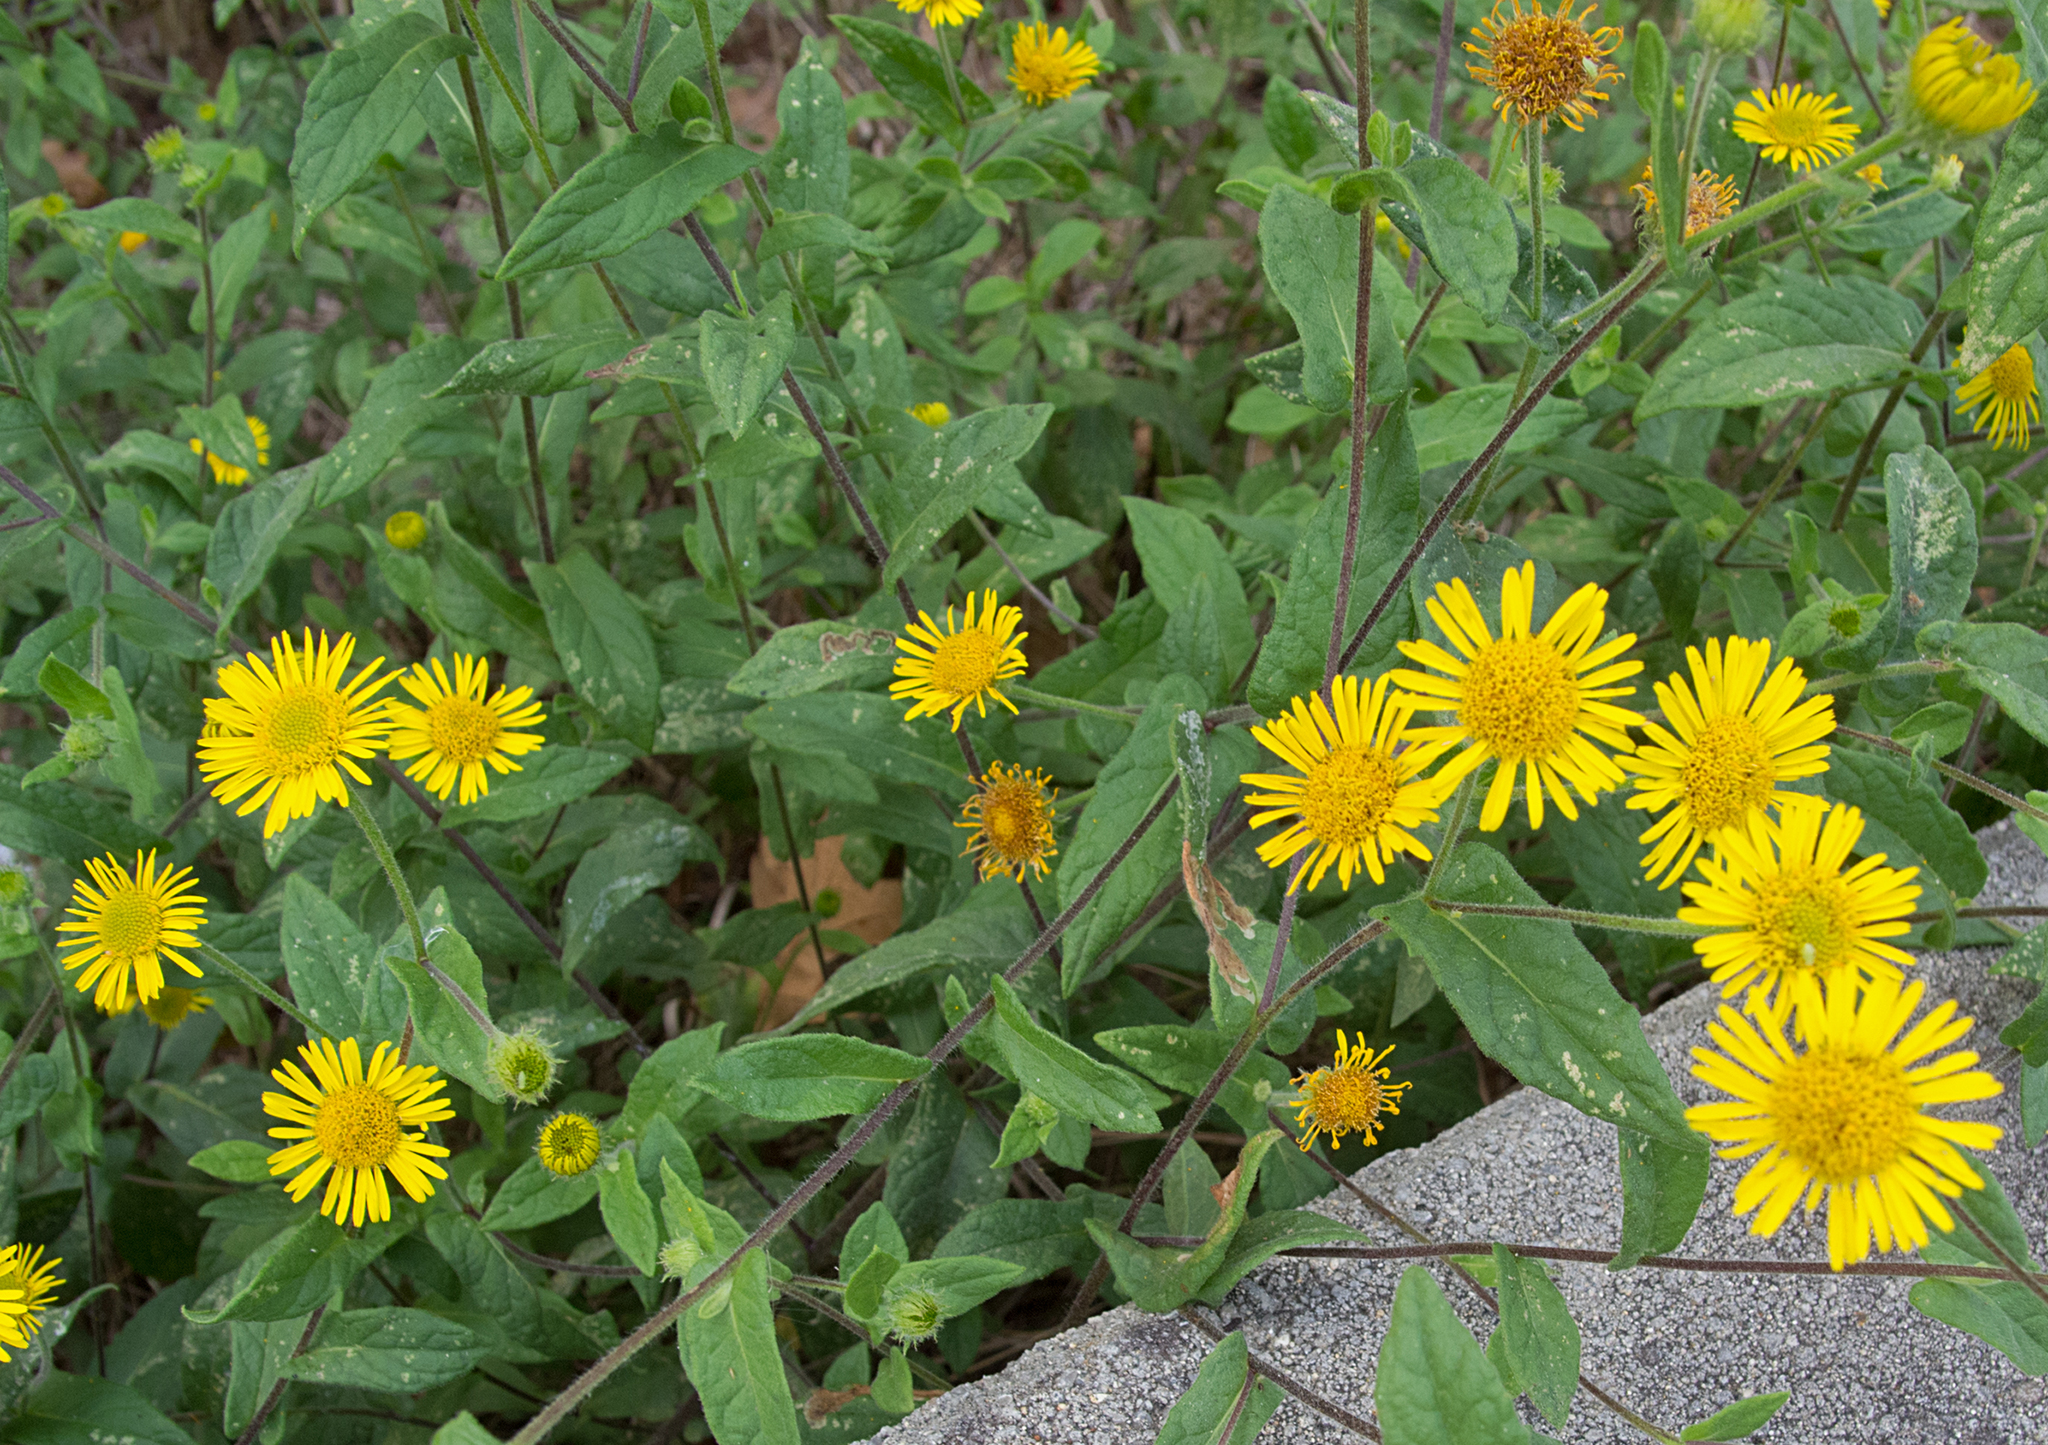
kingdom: Plantae
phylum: Tracheophyta
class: Magnoliopsida
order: Asterales
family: Asteraceae
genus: Pulicaria
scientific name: Pulicaria dysenterica
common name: Common fleabane
